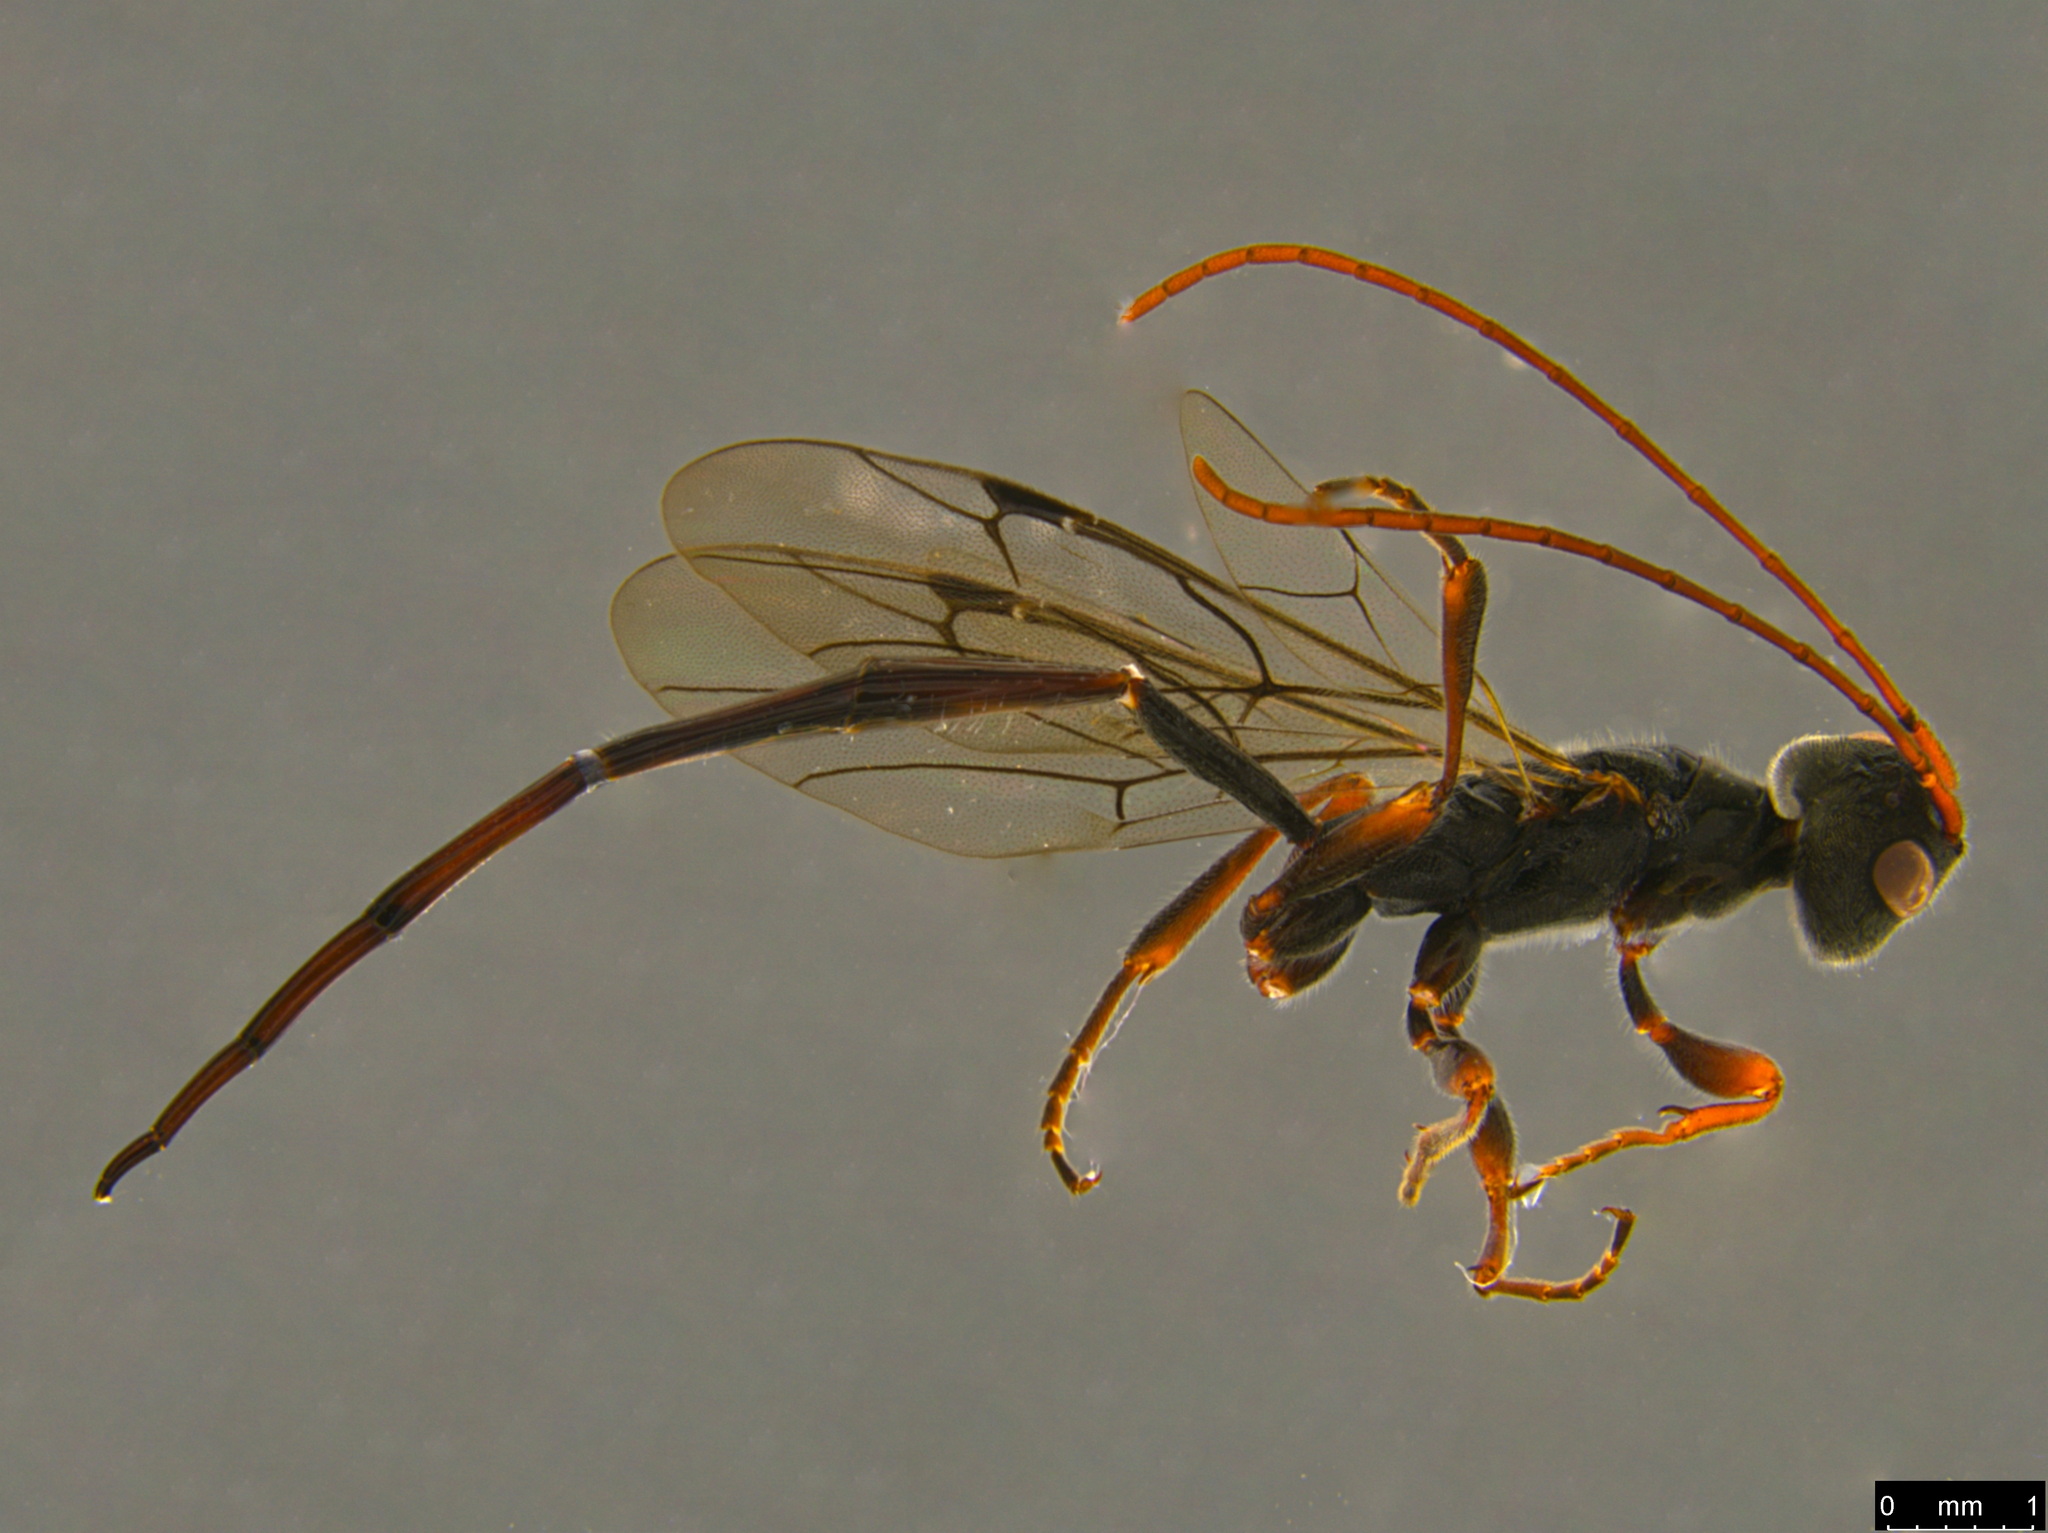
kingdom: Animalia
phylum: Arthropoda
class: Insecta
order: Hymenoptera
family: Monomachidae
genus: Monomachus
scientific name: Monomachus antipodalis
